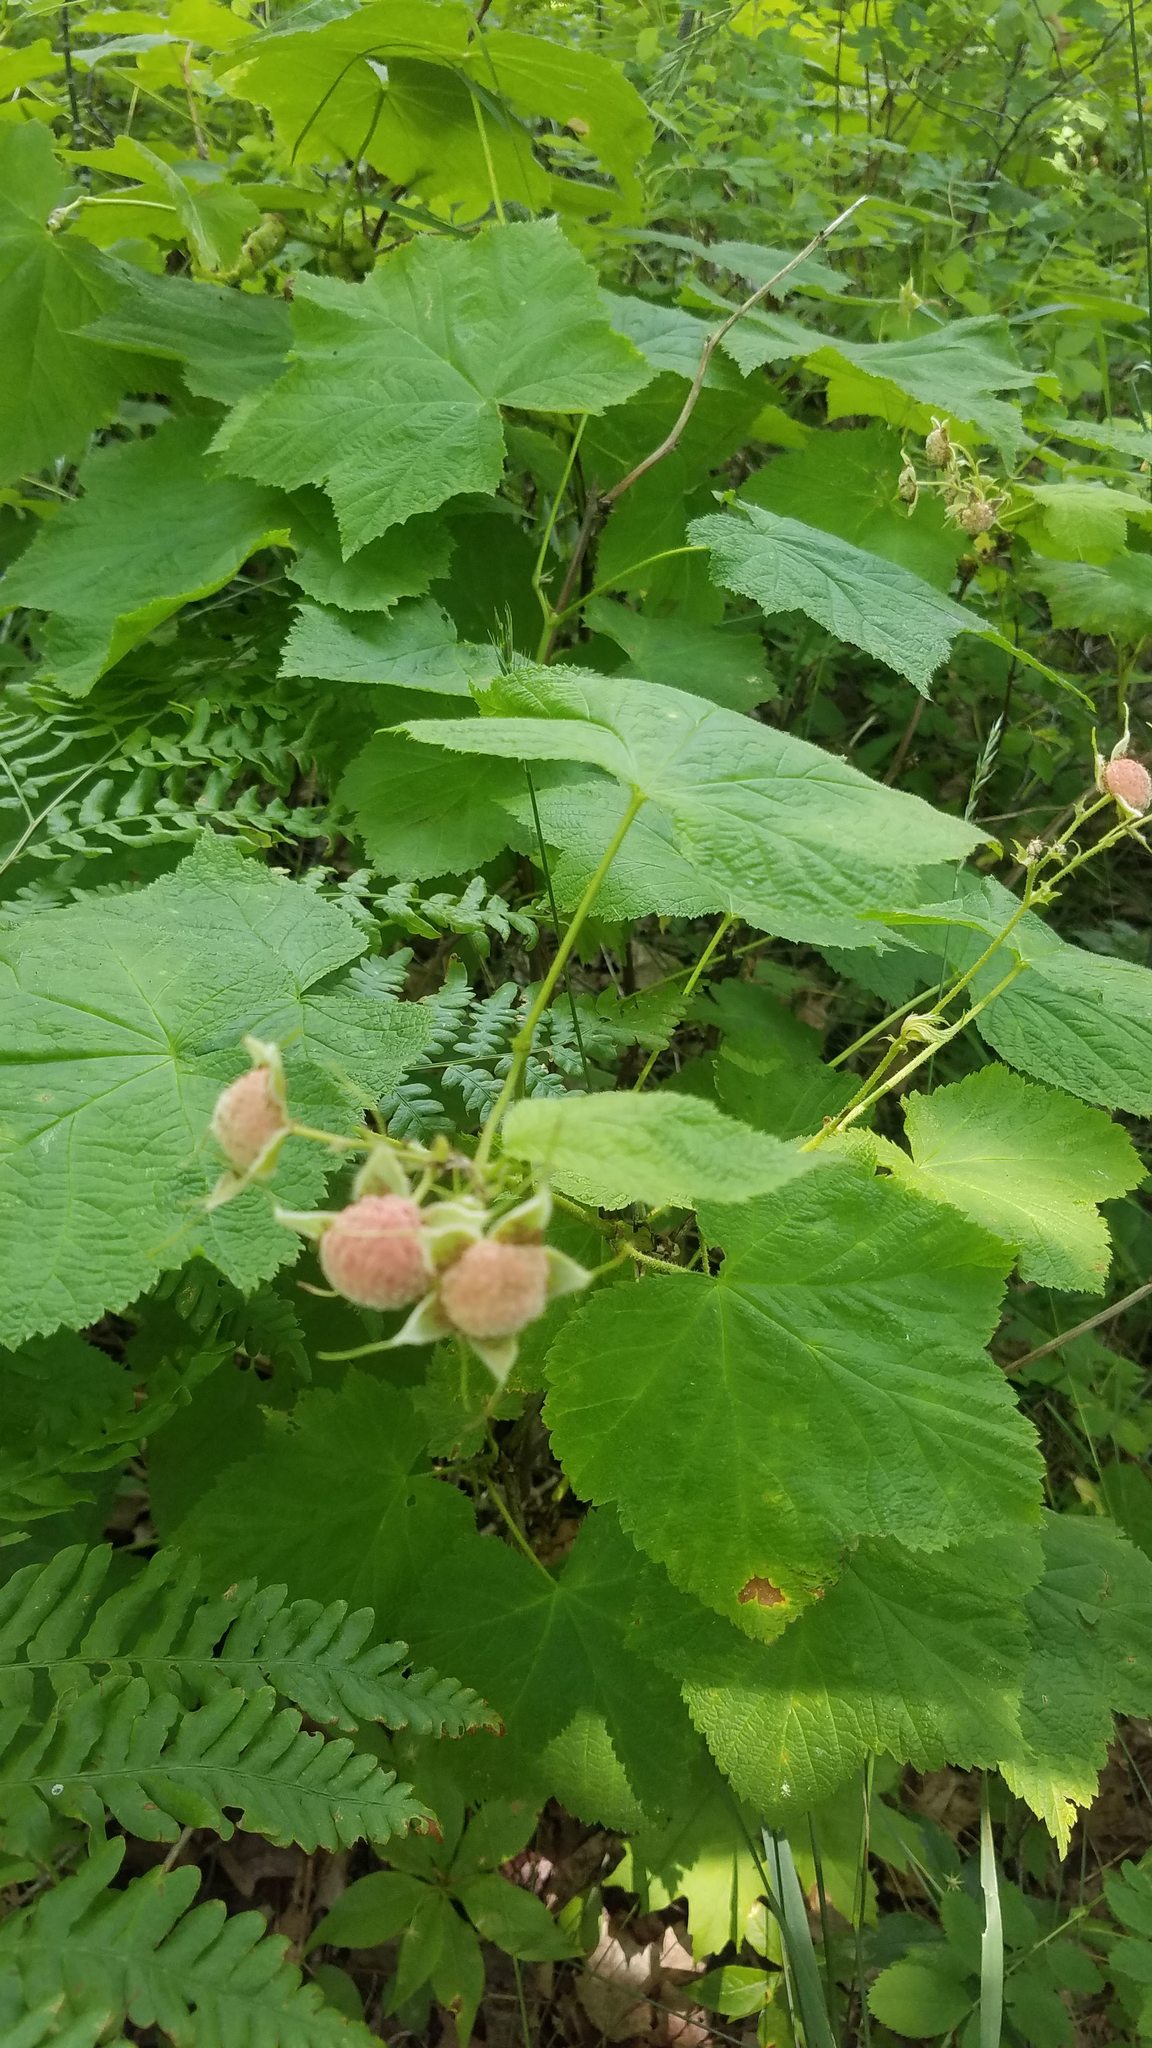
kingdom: Plantae
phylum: Tracheophyta
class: Magnoliopsida
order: Rosales
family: Rosaceae
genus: Rubus
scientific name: Rubus parviflorus
